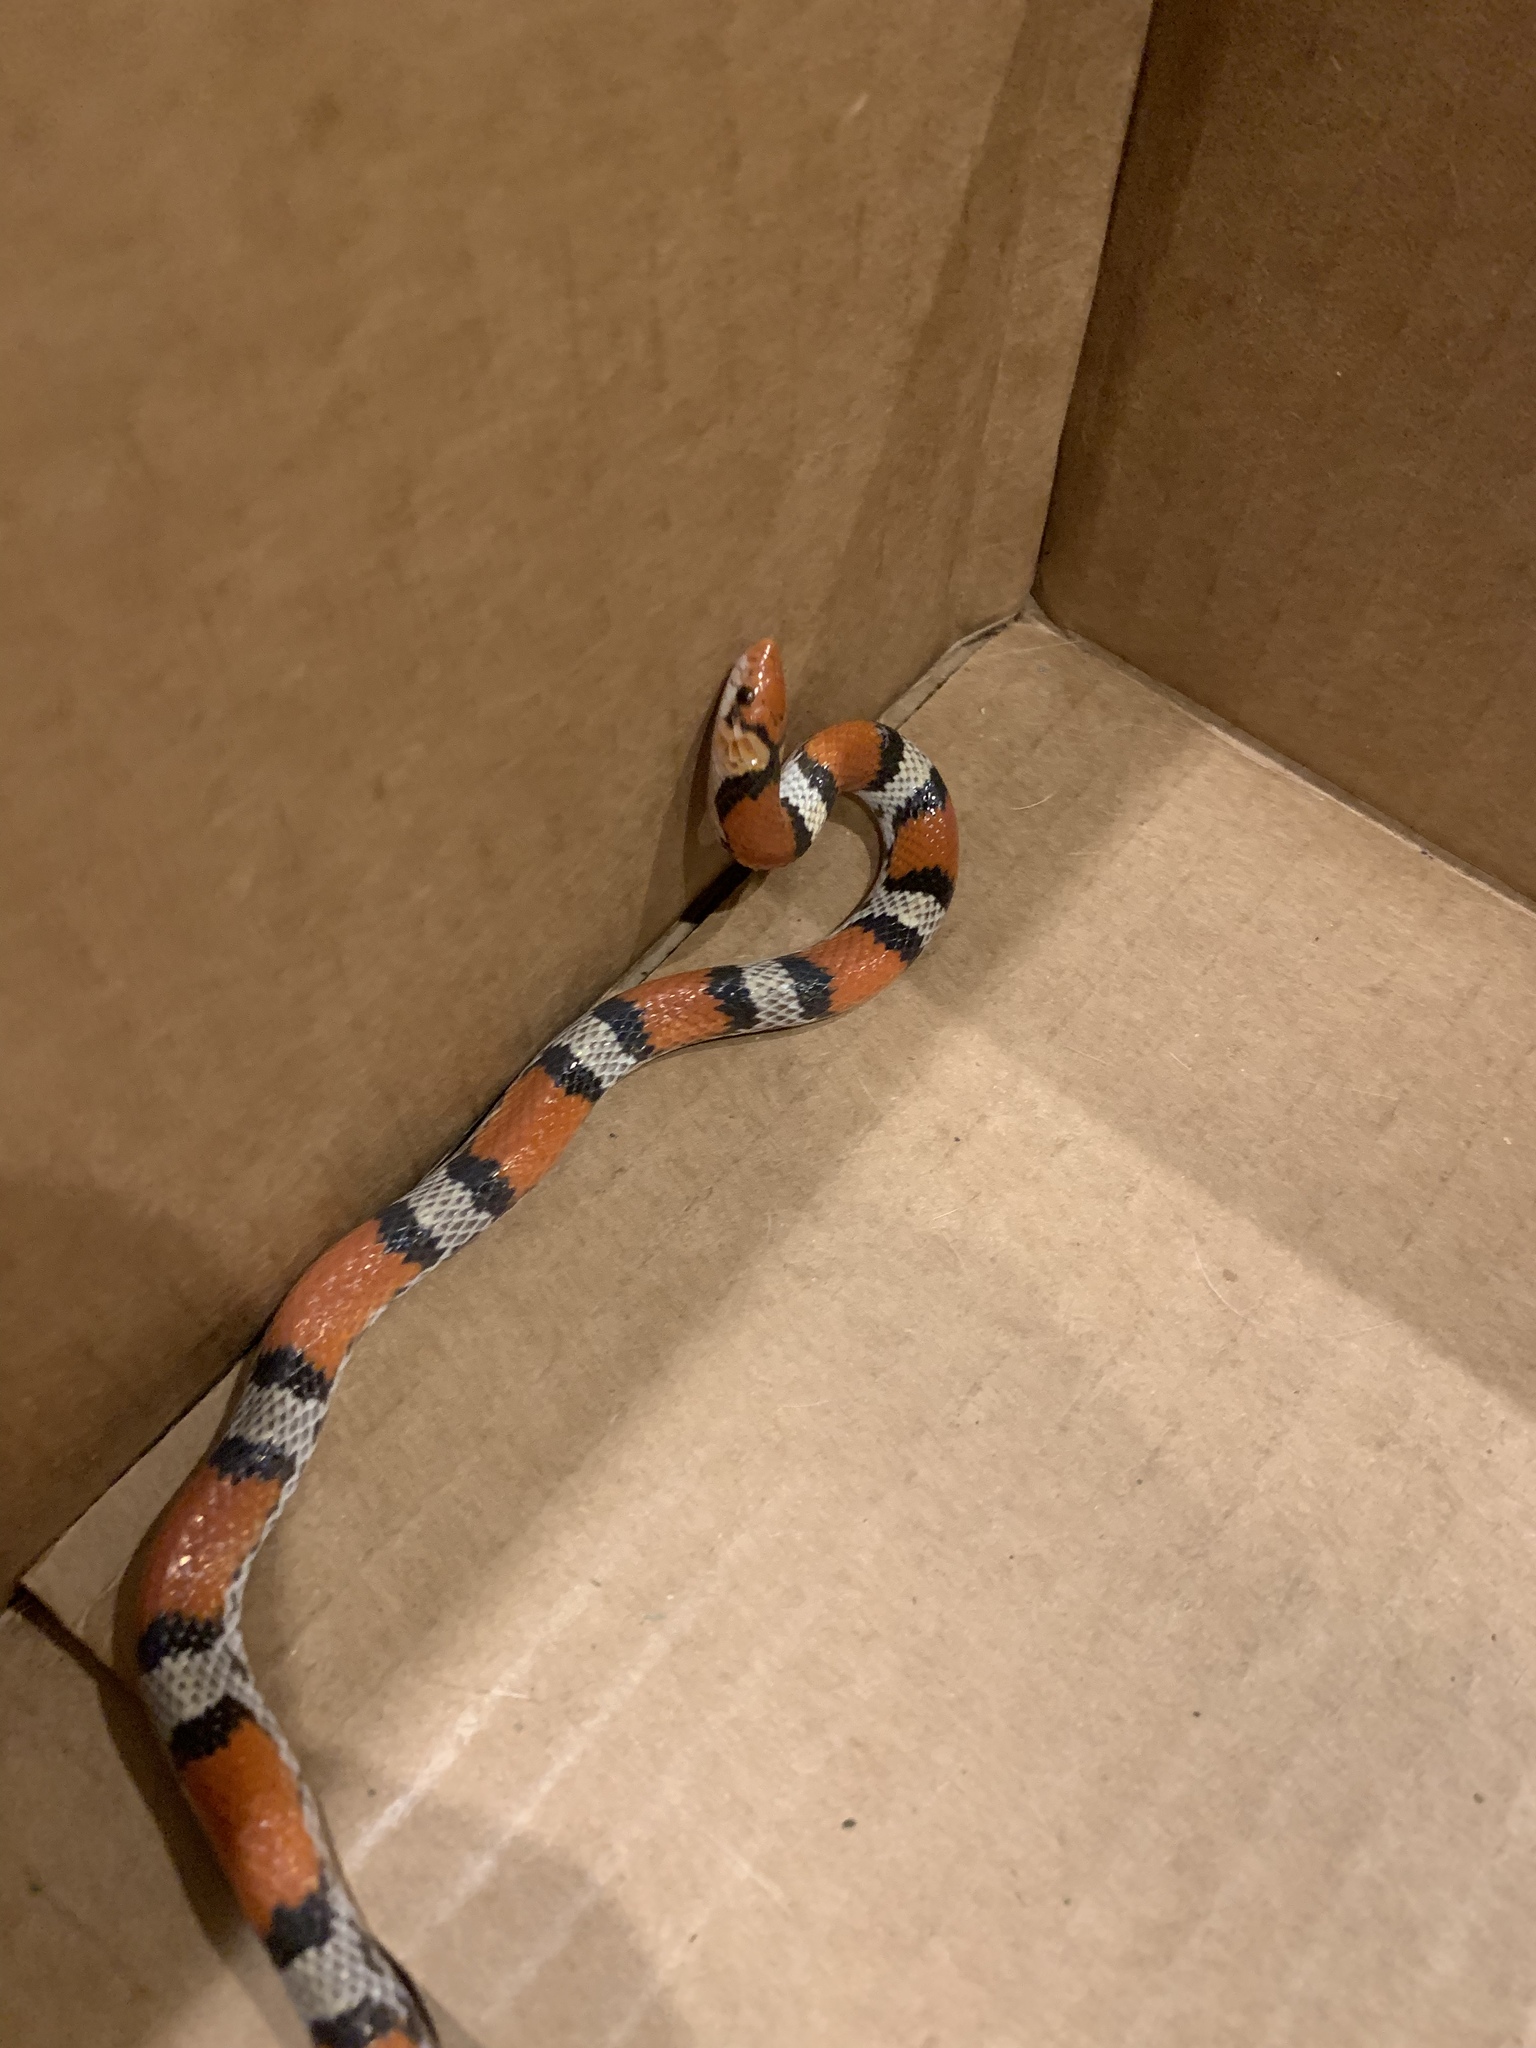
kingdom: Animalia
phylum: Chordata
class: Squamata
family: Colubridae
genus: Cemophora
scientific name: Cemophora coccinea
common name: Scarlet snake
